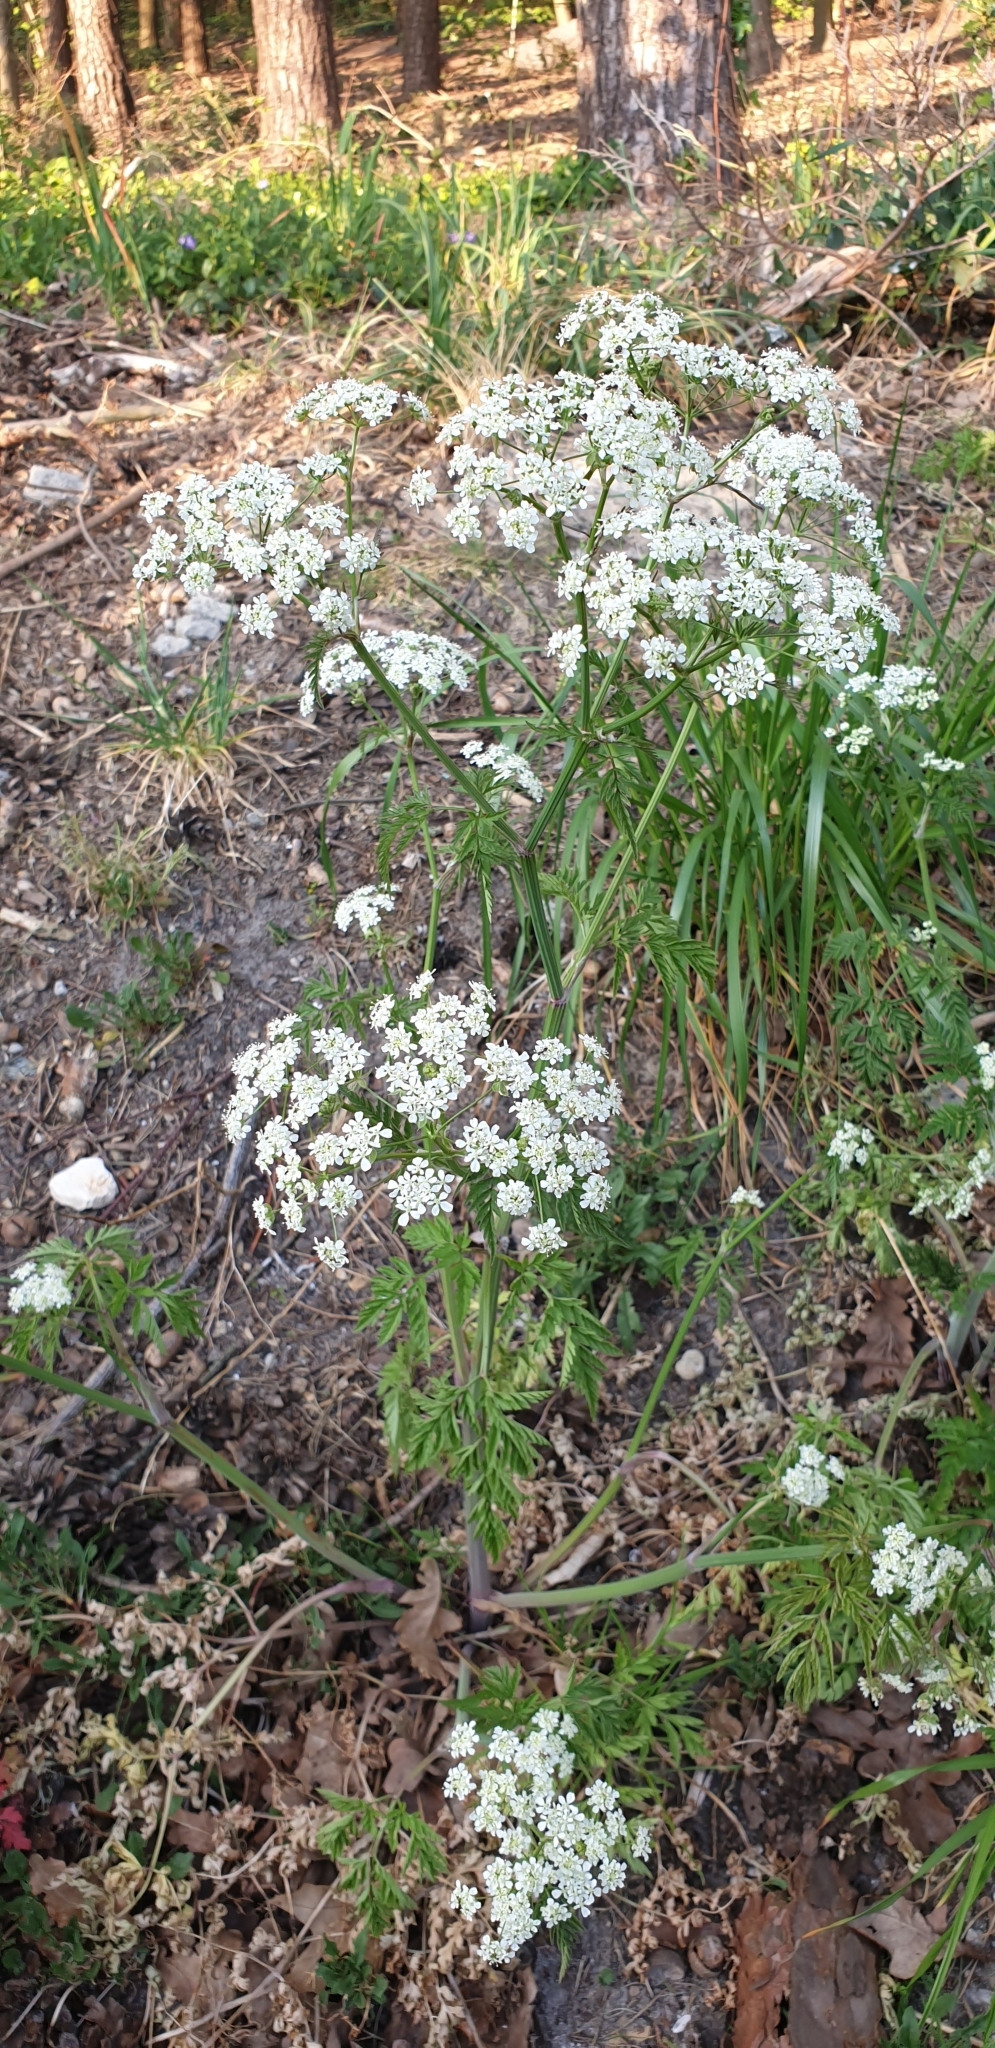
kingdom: Plantae
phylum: Tracheophyta
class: Magnoliopsida
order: Apiales
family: Apiaceae
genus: Anthriscus
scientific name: Anthriscus sylvestris
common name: Cow parsley
